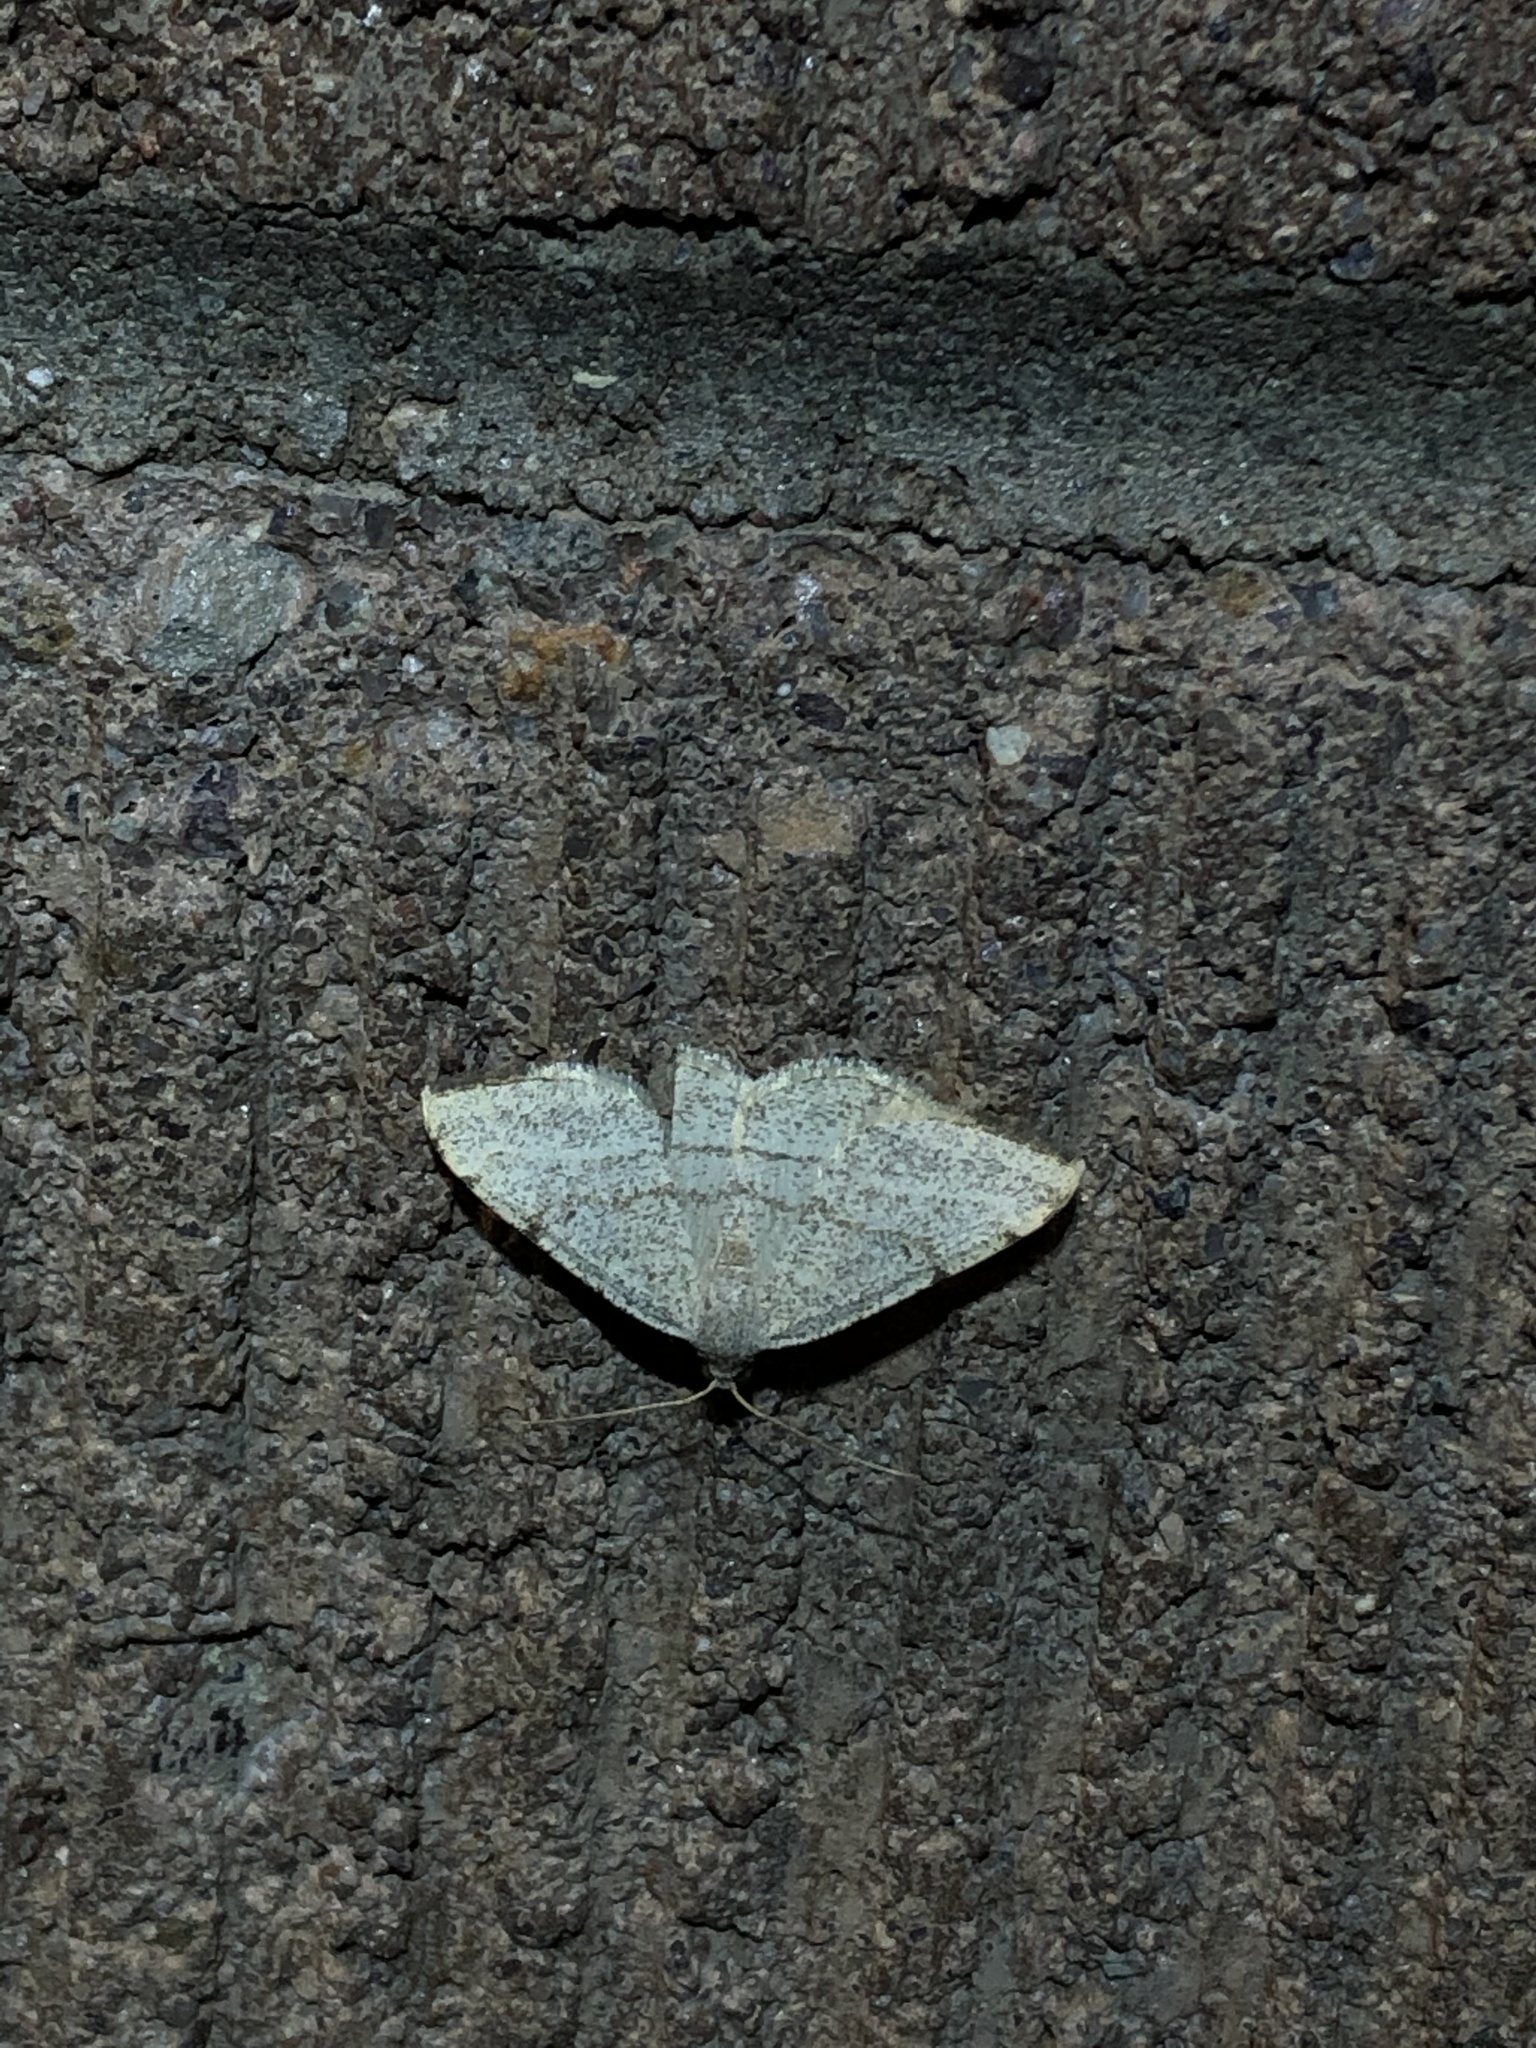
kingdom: Animalia
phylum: Arthropoda
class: Insecta
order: Lepidoptera
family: Geometridae
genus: Macaria
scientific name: Macaria octolineata
